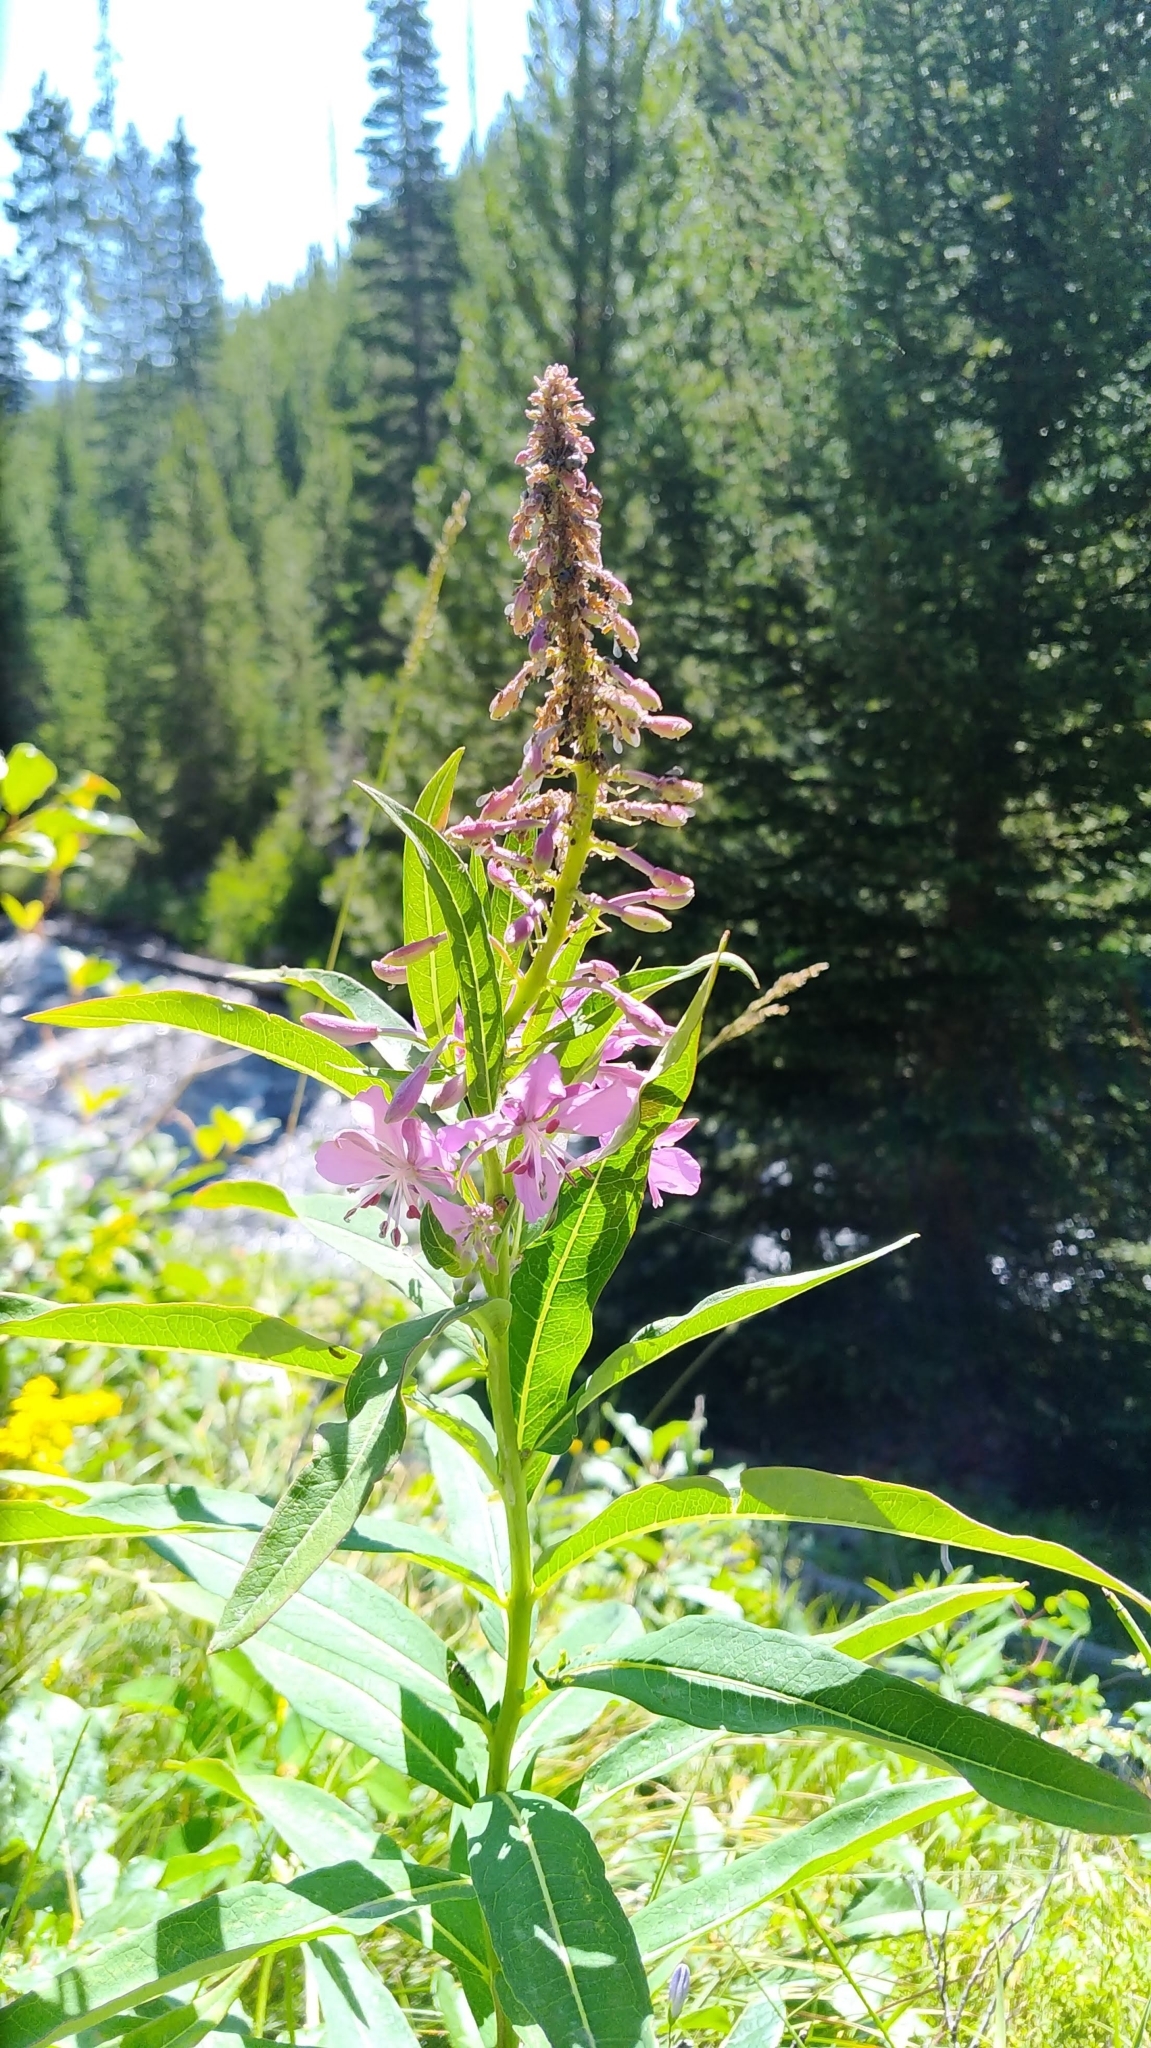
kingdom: Plantae
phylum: Tracheophyta
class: Magnoliopsida
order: Myrtales
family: Onagraceae
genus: Chamaenerion
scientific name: Chamaenerion angustifolium
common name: Fireweed
